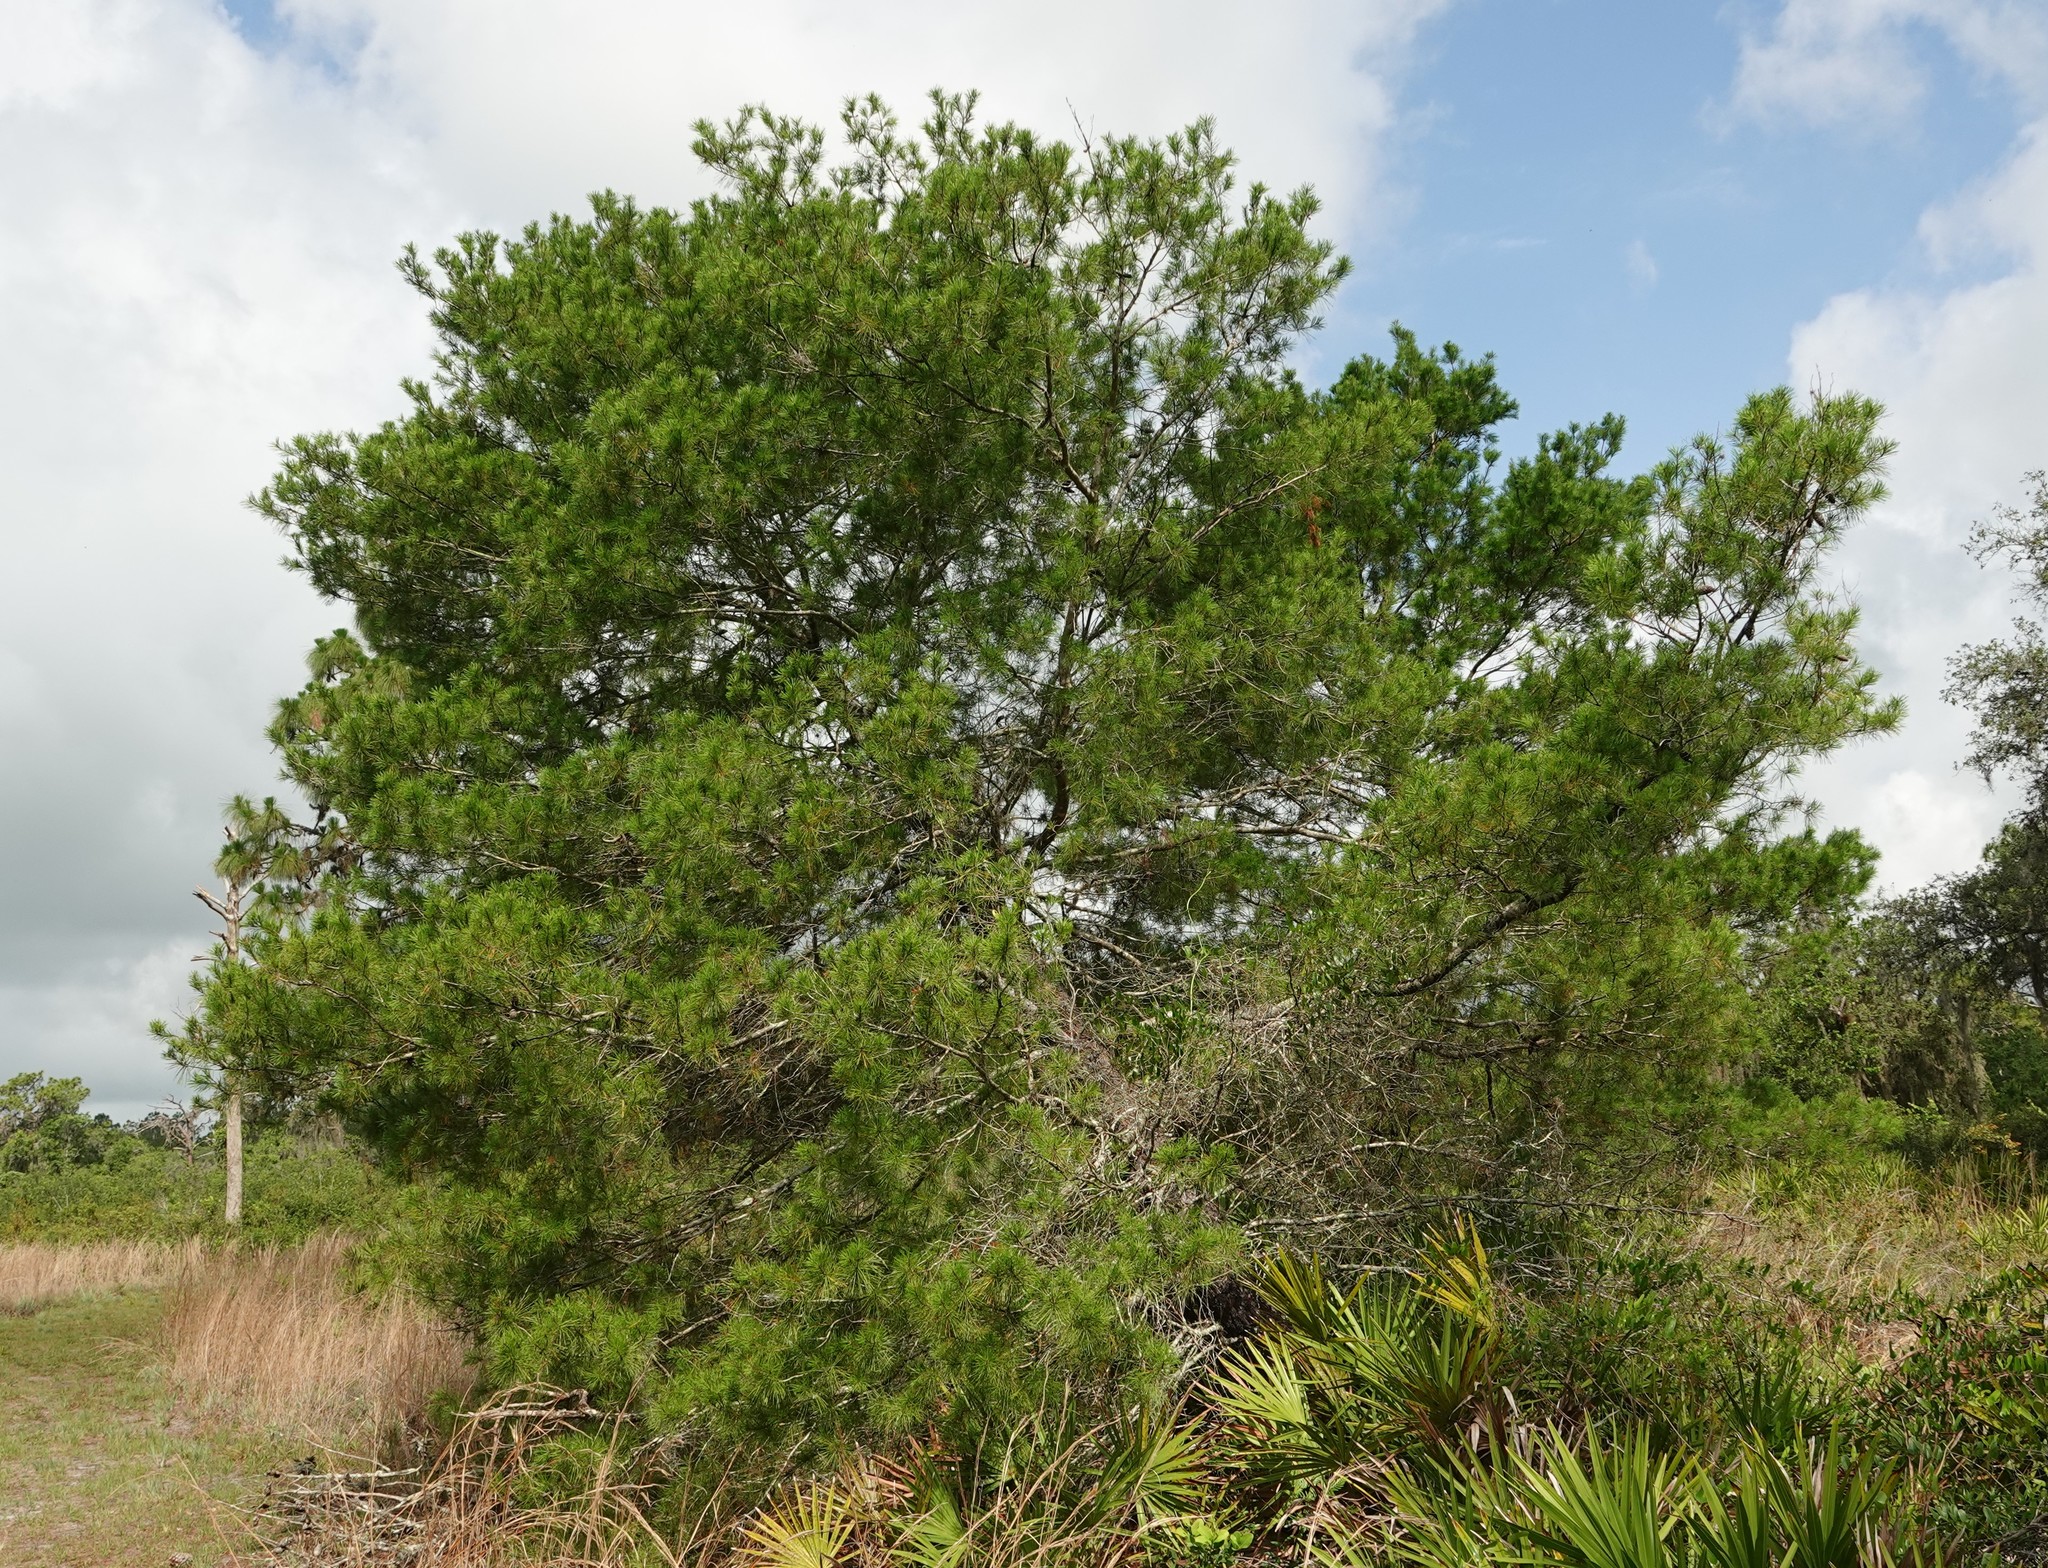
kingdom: Plantae
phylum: Tracheophyta
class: Pinopsida
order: Pinales
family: Pinaceae
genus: Pinus
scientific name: Pinus clausa
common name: Sand pine
